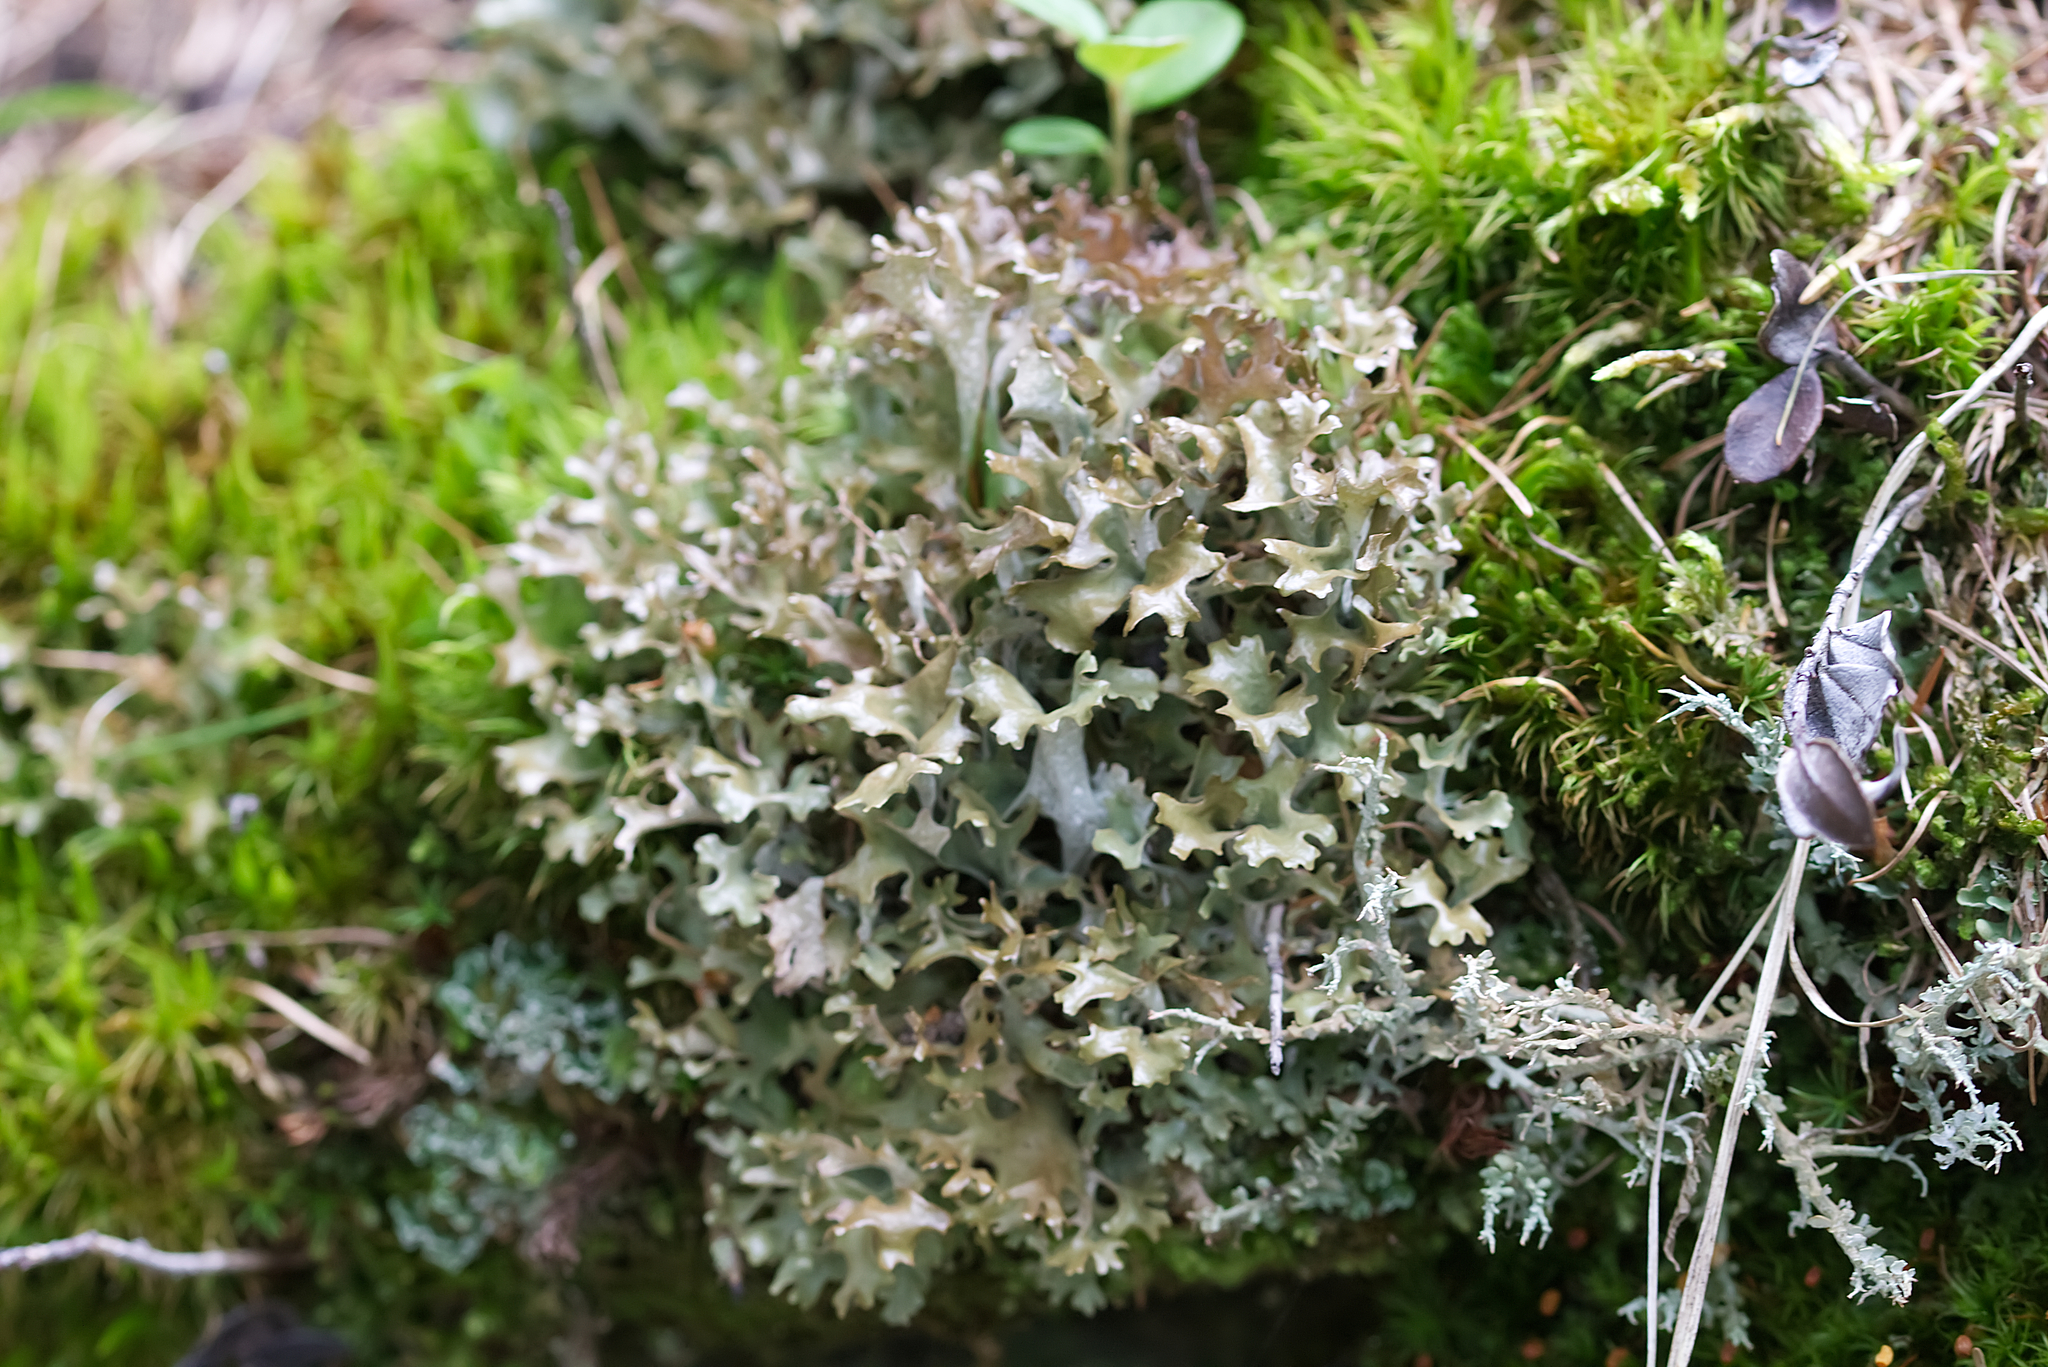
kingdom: Fungi
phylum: Ascomycota
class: Lecanoromycetes
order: Lecanorales
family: Parmeliaceae
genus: Cetraria
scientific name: Cetraria islandica
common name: Iceland lichen
